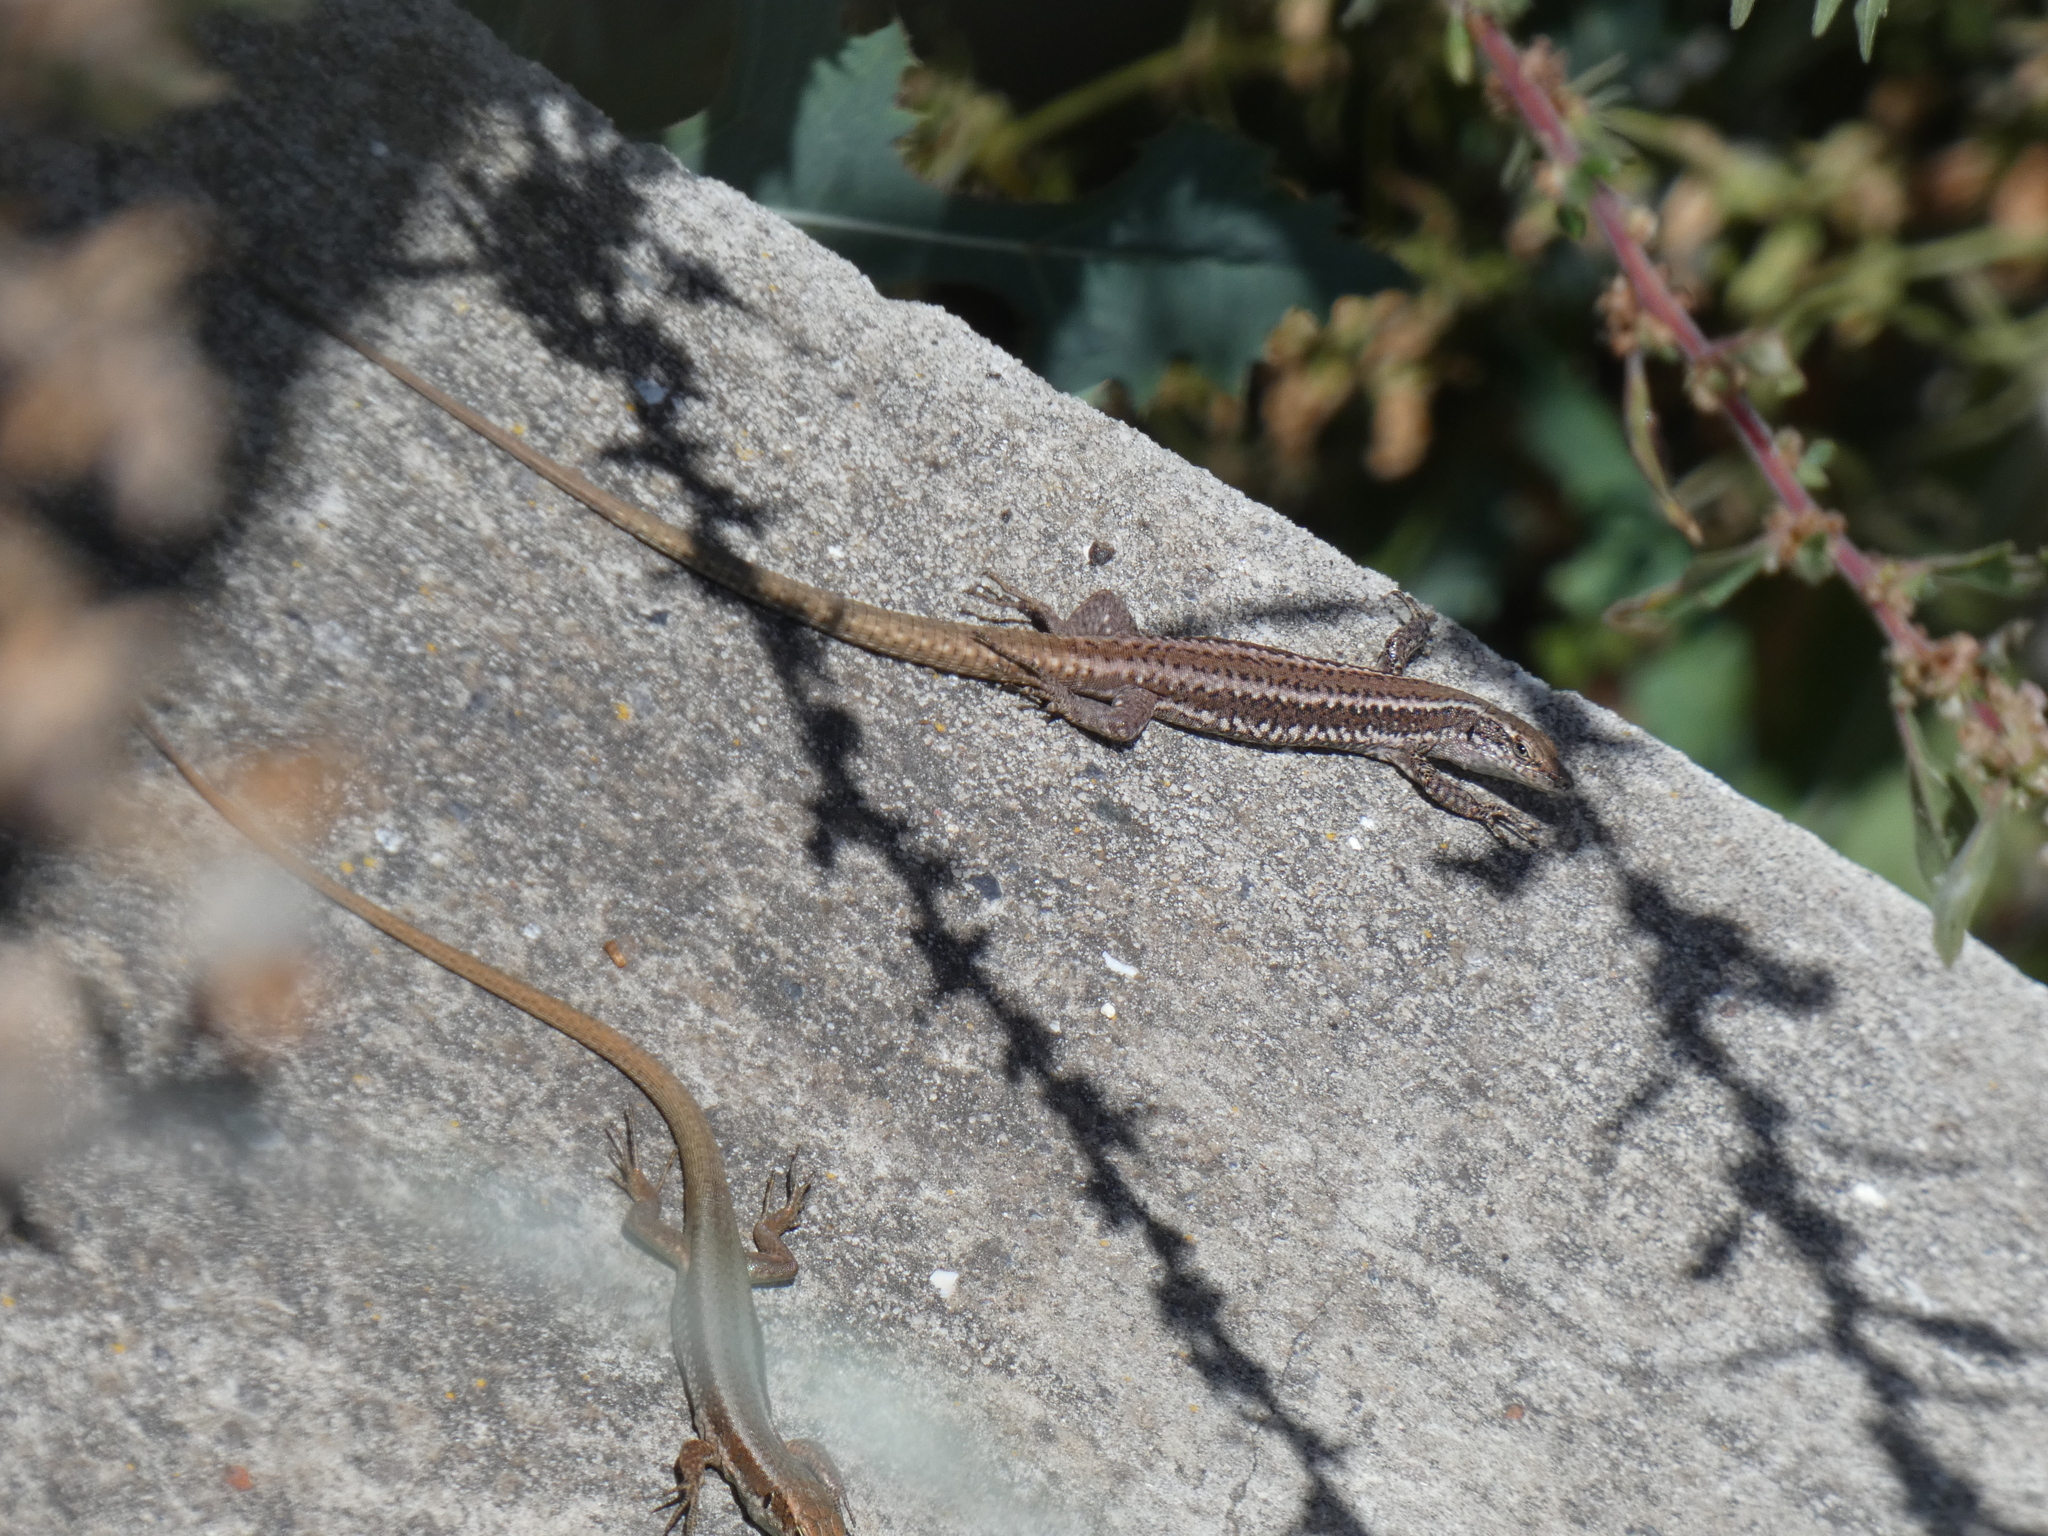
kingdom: Animalia
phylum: Chordata
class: Squamata
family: Lacertidae
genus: Teira
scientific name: Teira dugesii
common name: Madeira lizard
